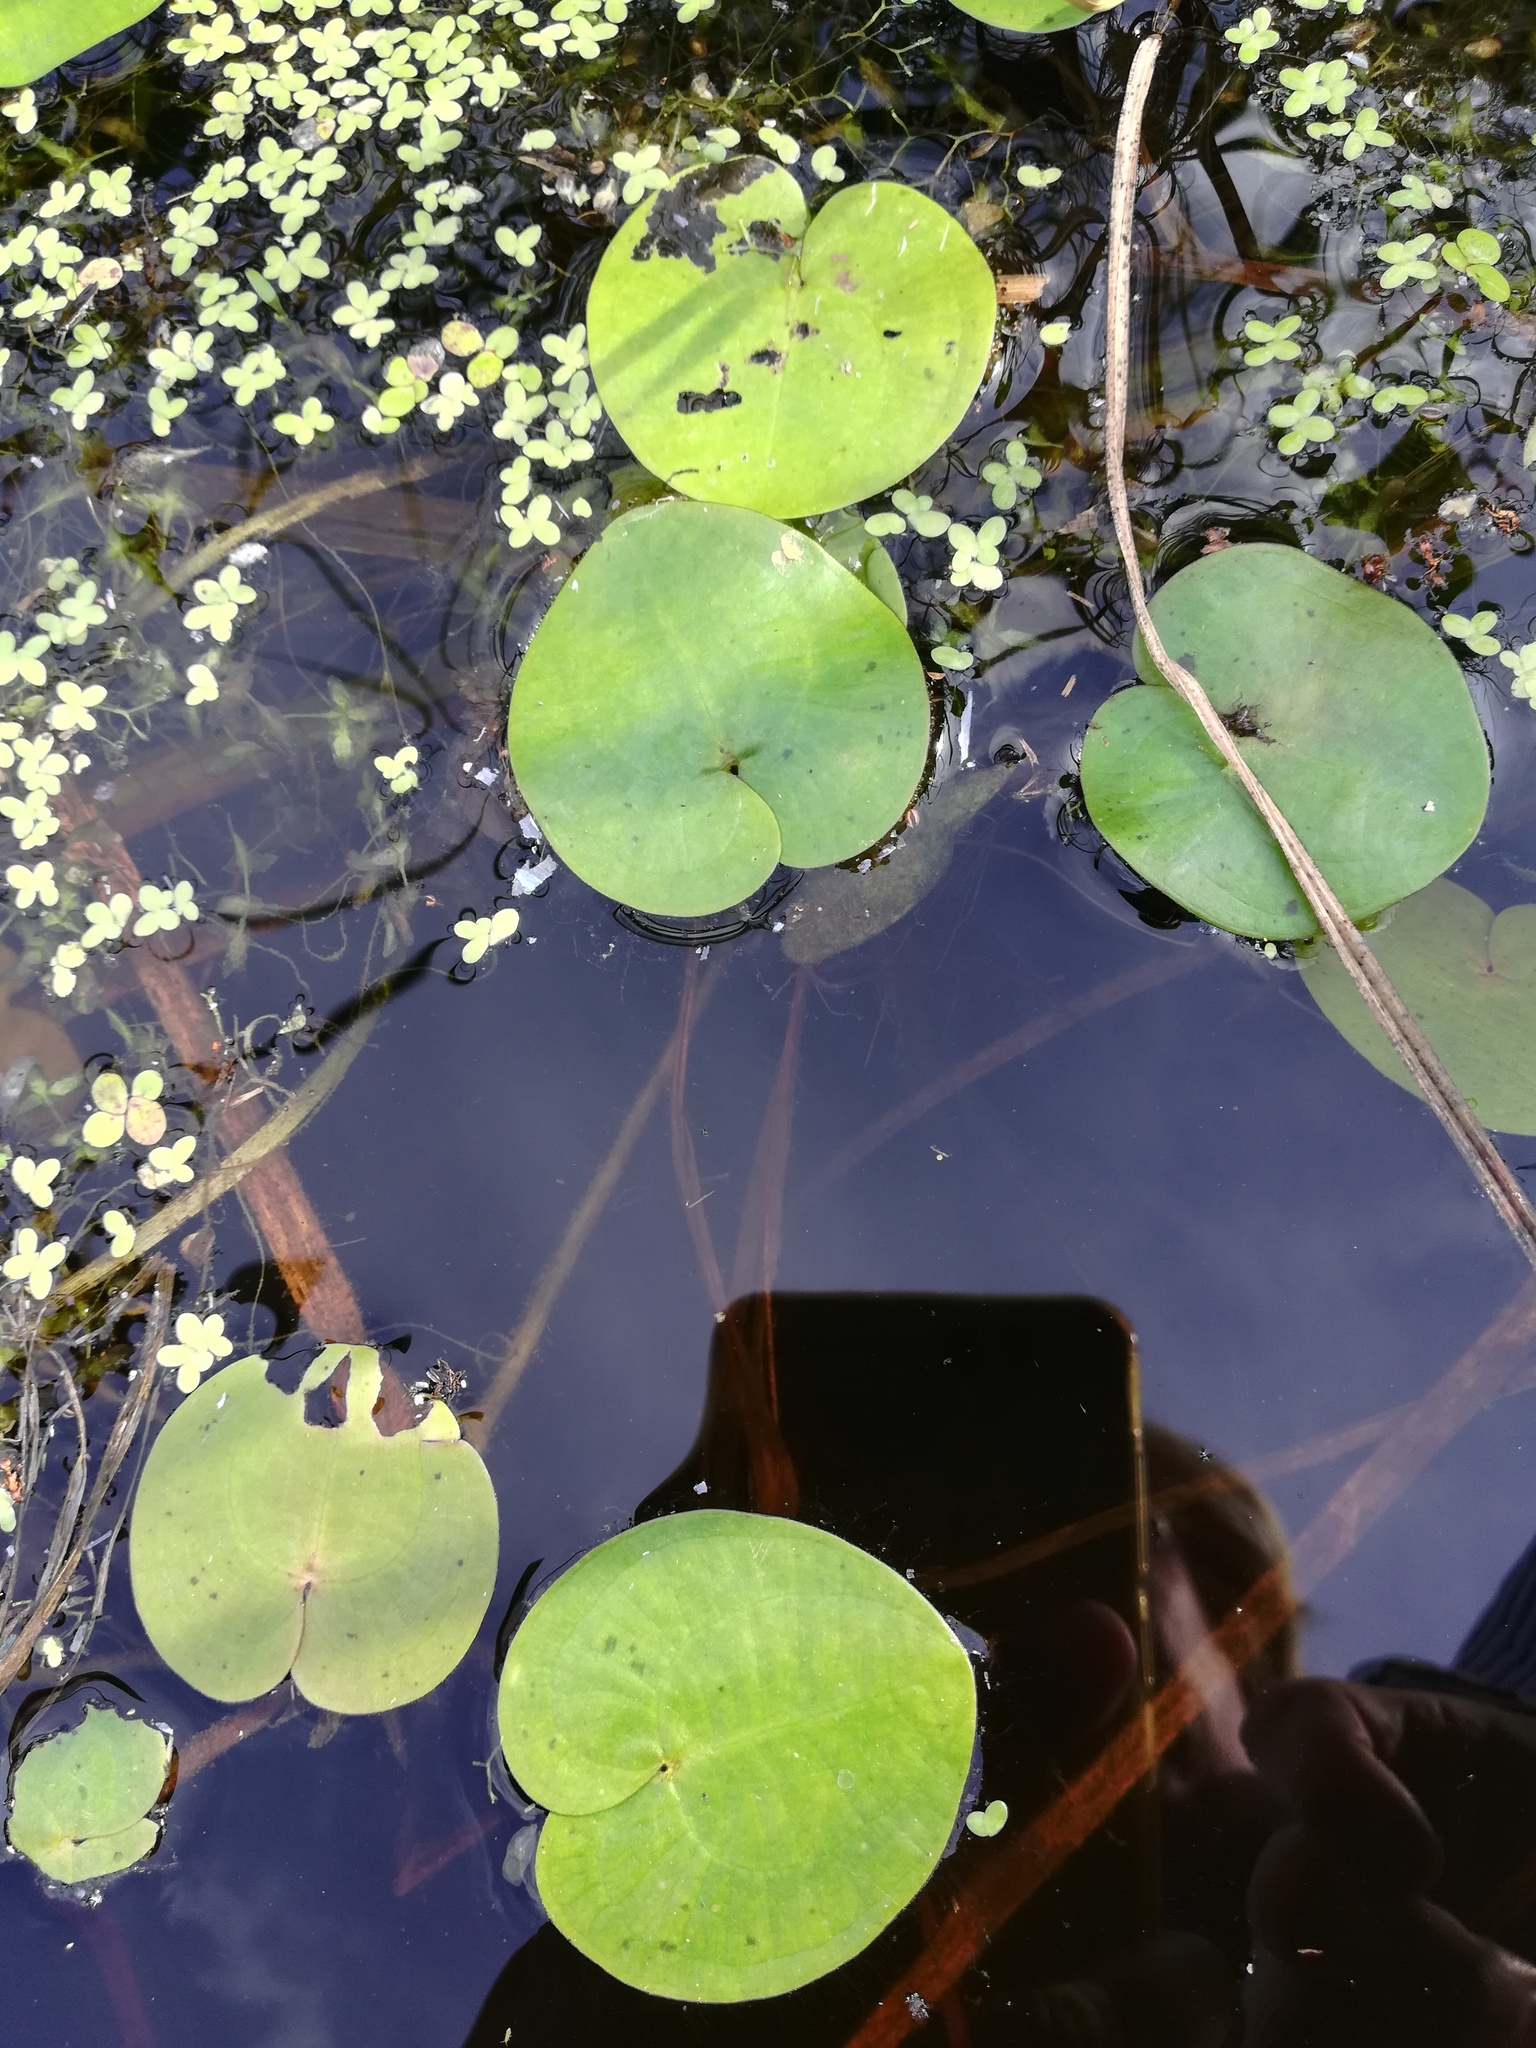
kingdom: Plantae
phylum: Tracheophyta
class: Liliopsida
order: Alismatales
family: Hydrocharitaceae
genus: Hydrocharis
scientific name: Hydrocharis morsus-ranae
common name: Frogbit
